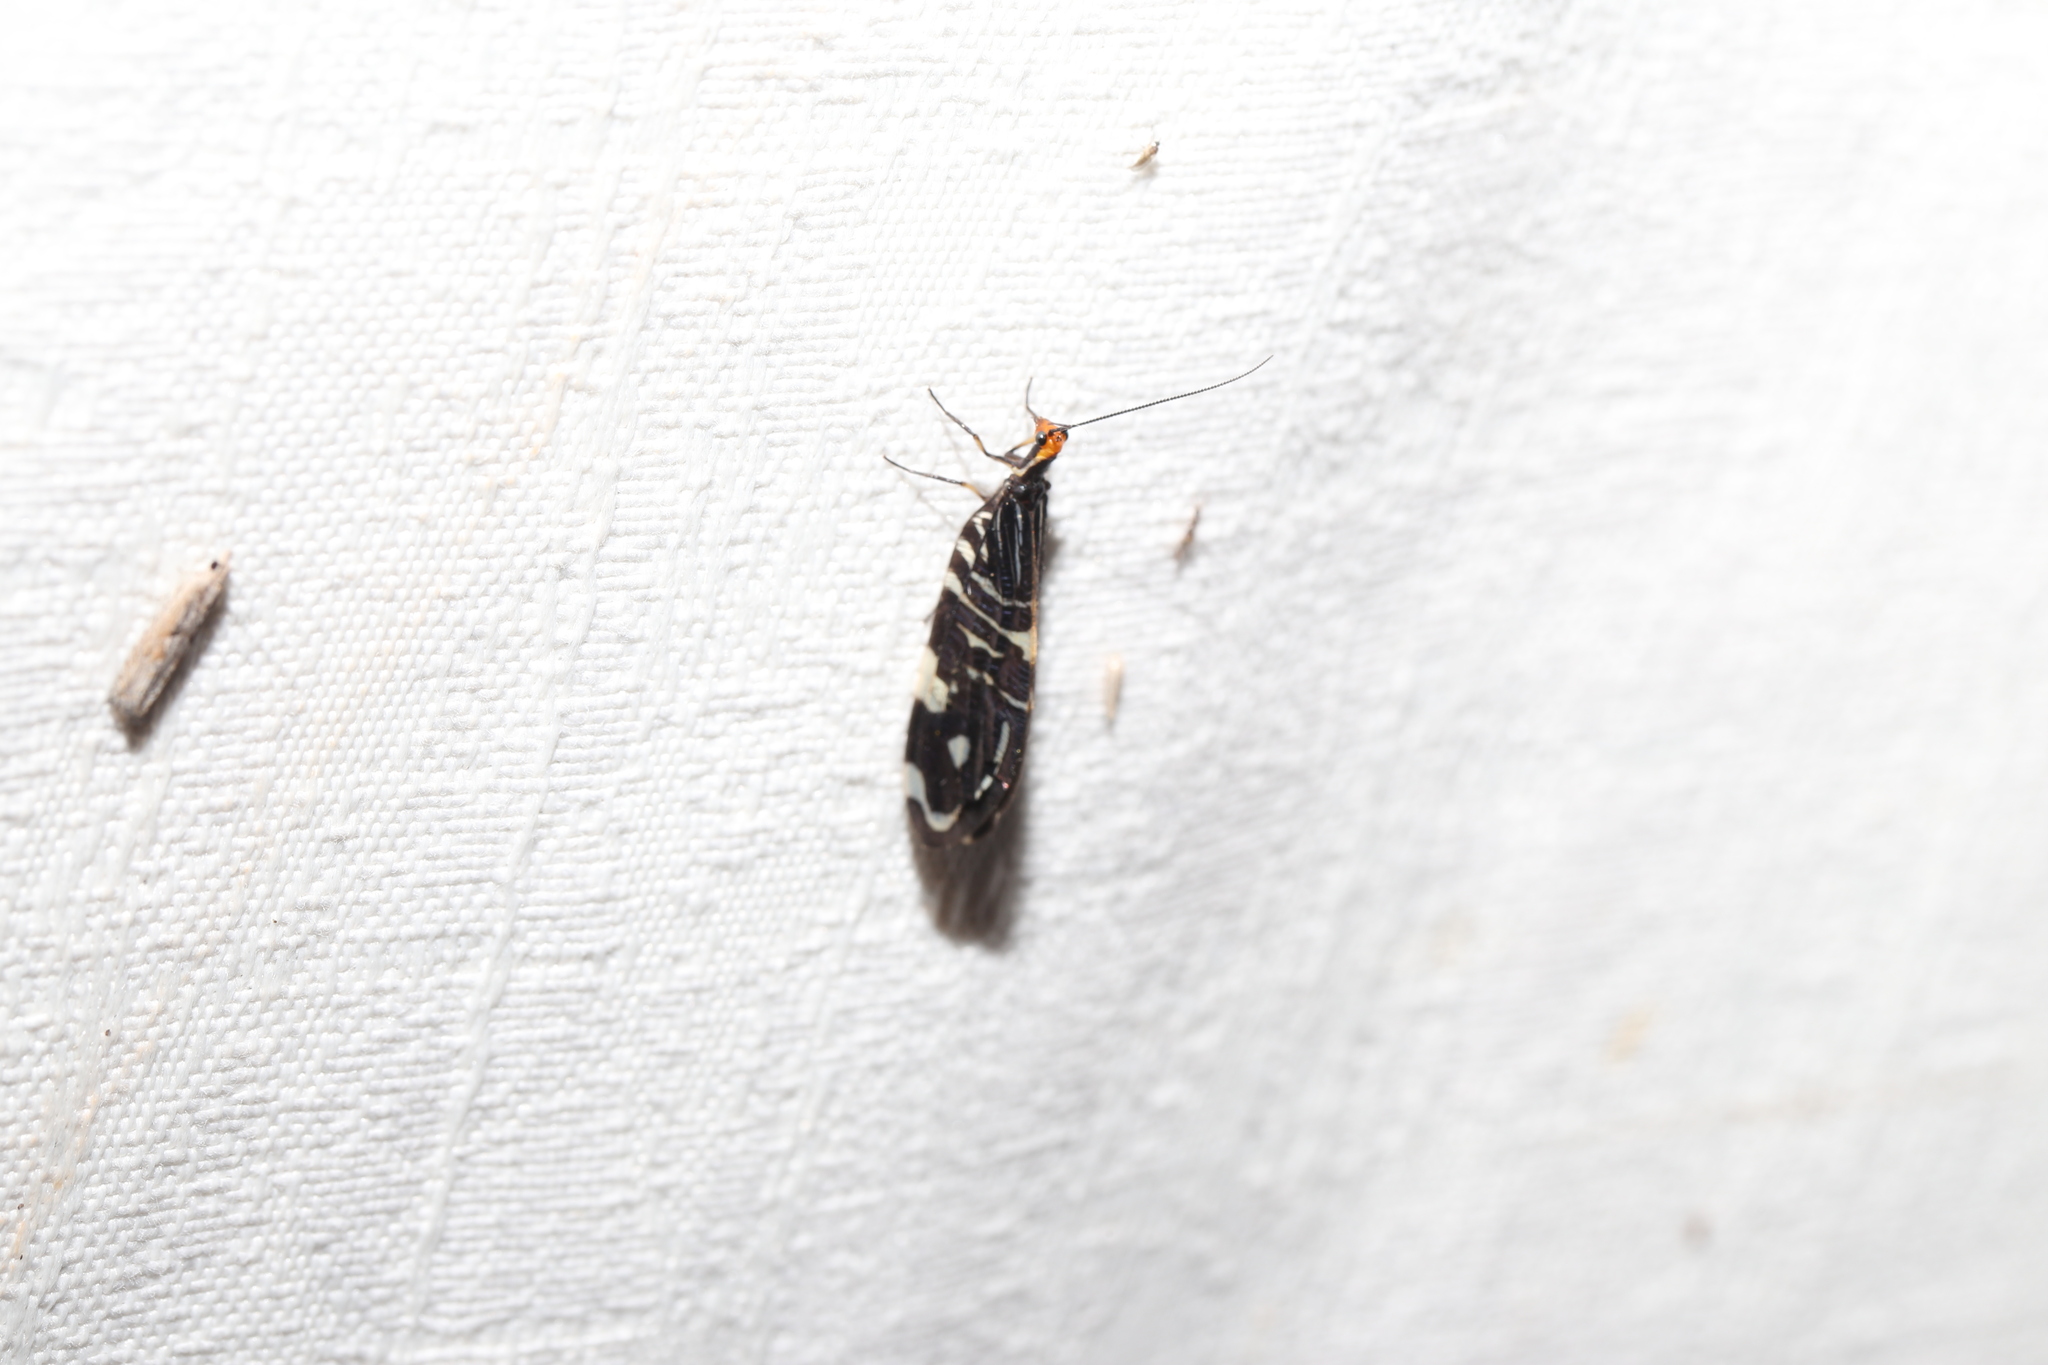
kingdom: Animalia
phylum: Arthropoda
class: Insecta
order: Neuroptera
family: Osmylidae
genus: Porismus
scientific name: Porismus strigatus
